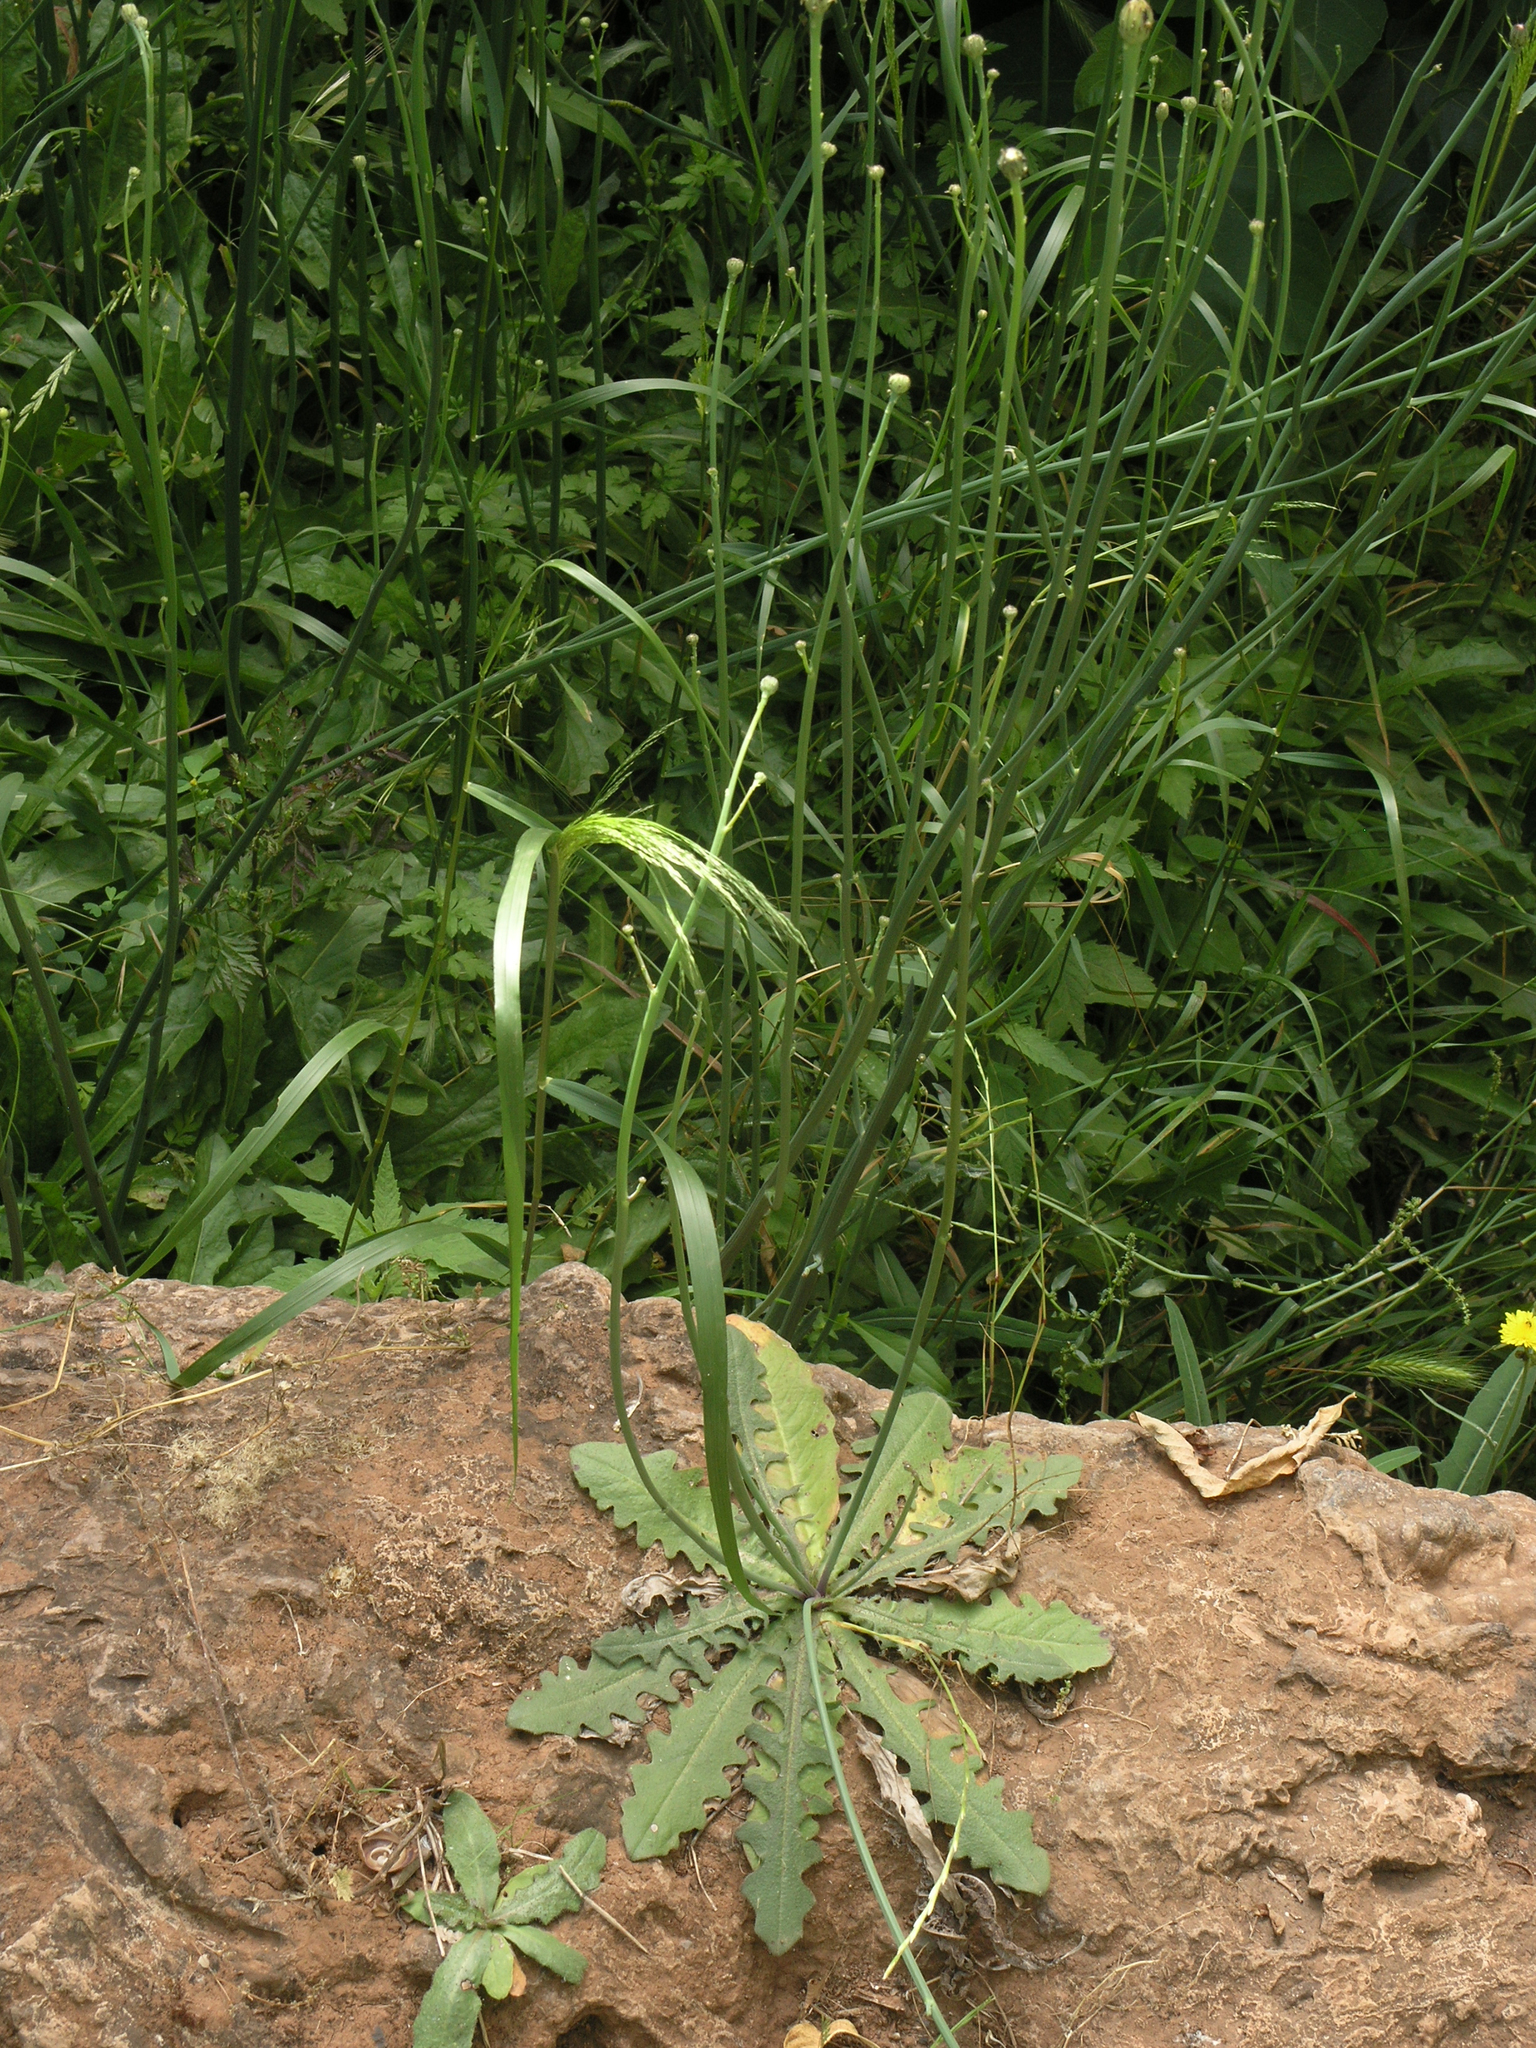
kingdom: Plantae
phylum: Tracheophyta
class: Magnoliopsida
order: Asterales
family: Asteraceae
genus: Hypochaeris
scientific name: Hypochaeris radicata
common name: Flatweed
